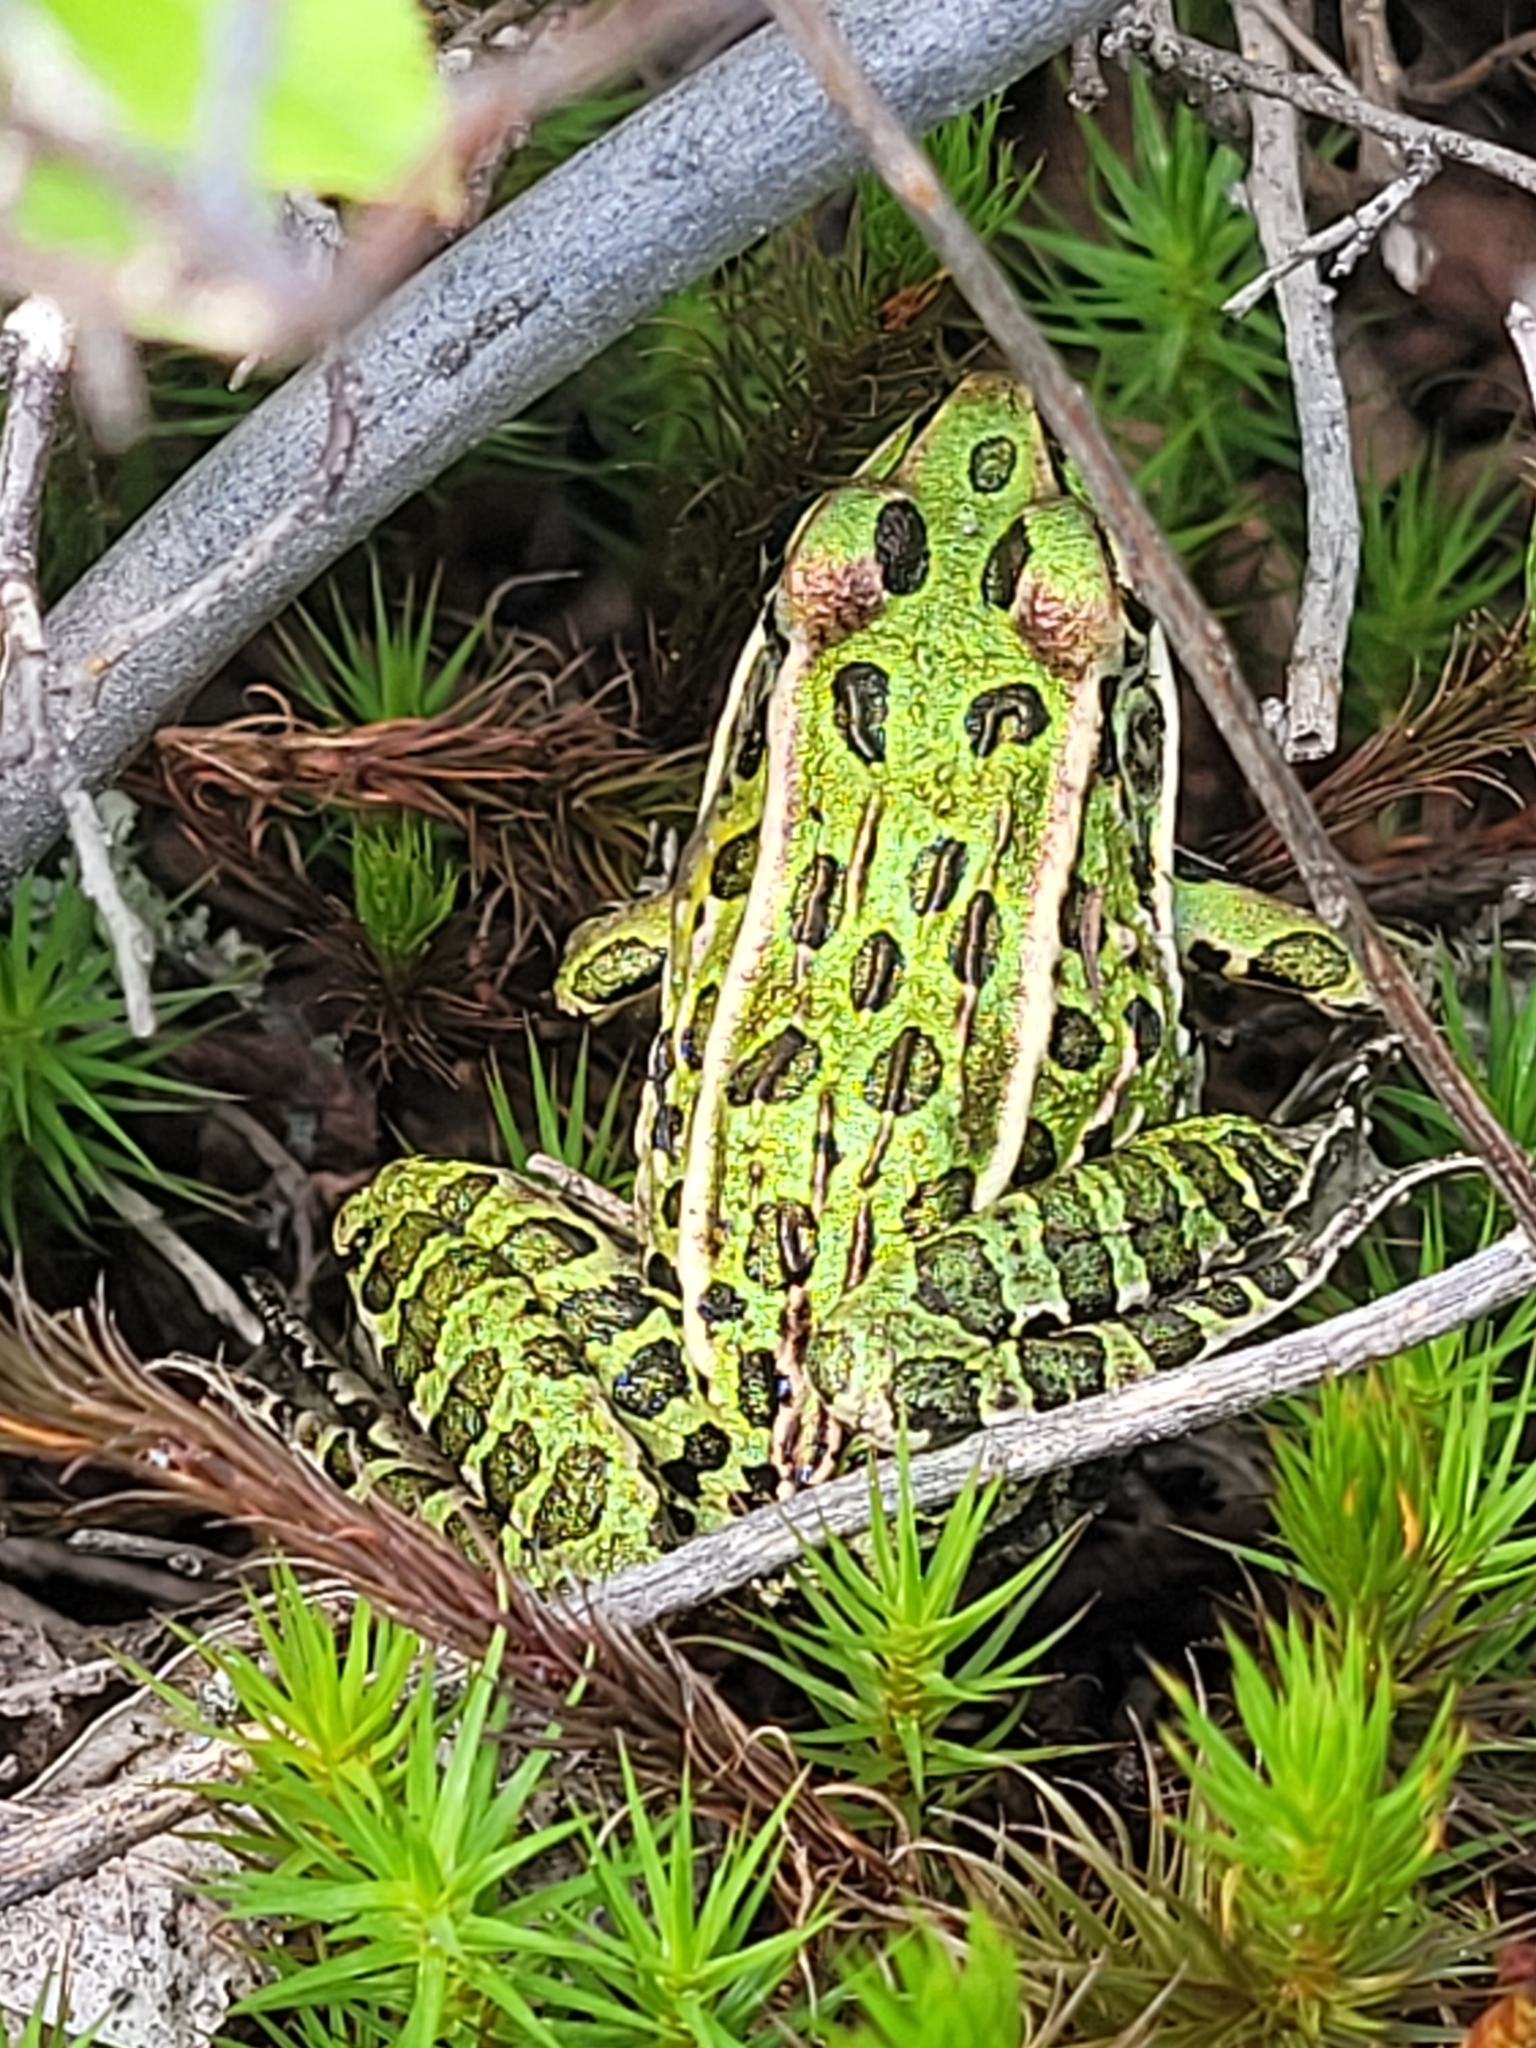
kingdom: Animalia
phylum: Chordata
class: Amphibia
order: Anura
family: Ranidae
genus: Lithobates
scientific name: Lithobates pipiens
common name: Northern leopard frog
